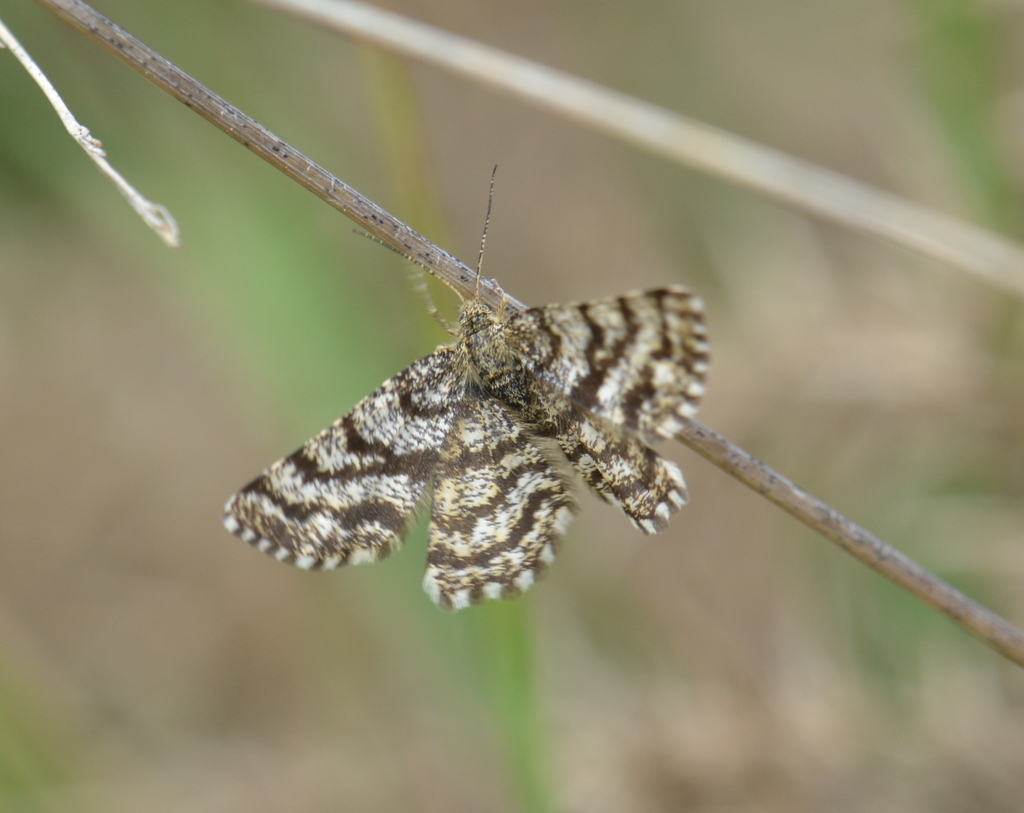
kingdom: Animalia
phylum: Arthropoda
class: Insecta
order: Lepidoptera
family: Geometridae
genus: Ematurga
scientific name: Ematurga atomaria
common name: Common heath
